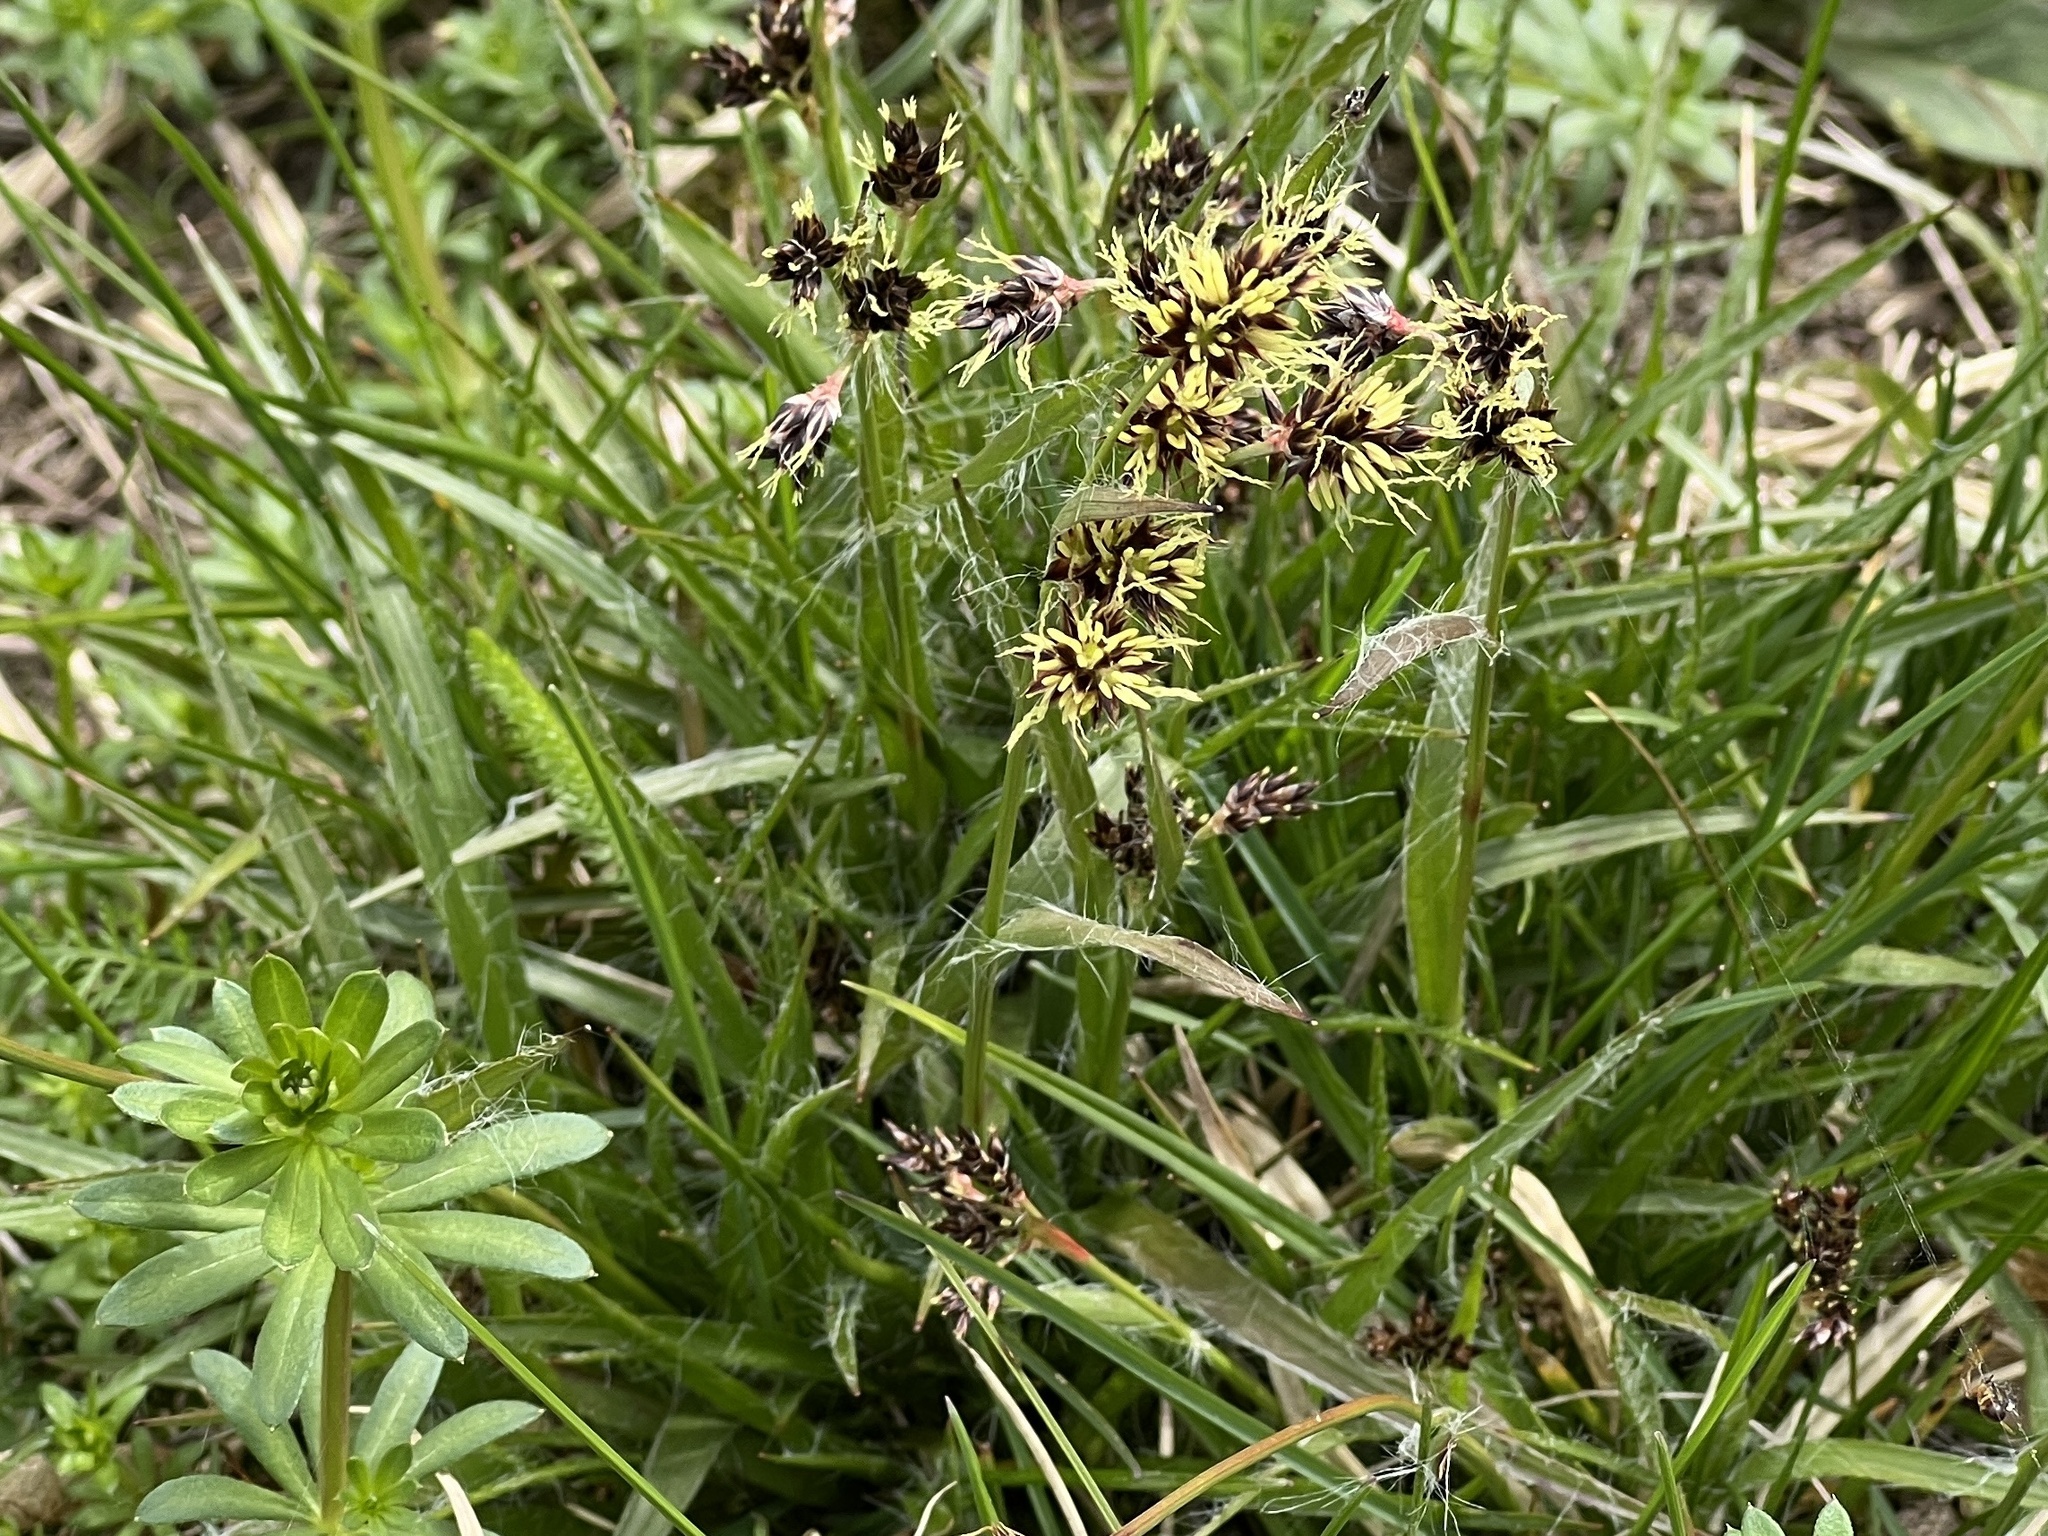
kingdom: Plantae
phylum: Tracheophyta
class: Liliopsida
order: Poales
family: Juncaceae
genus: Luzula
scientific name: Luzula campestris
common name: Field wood-rush
